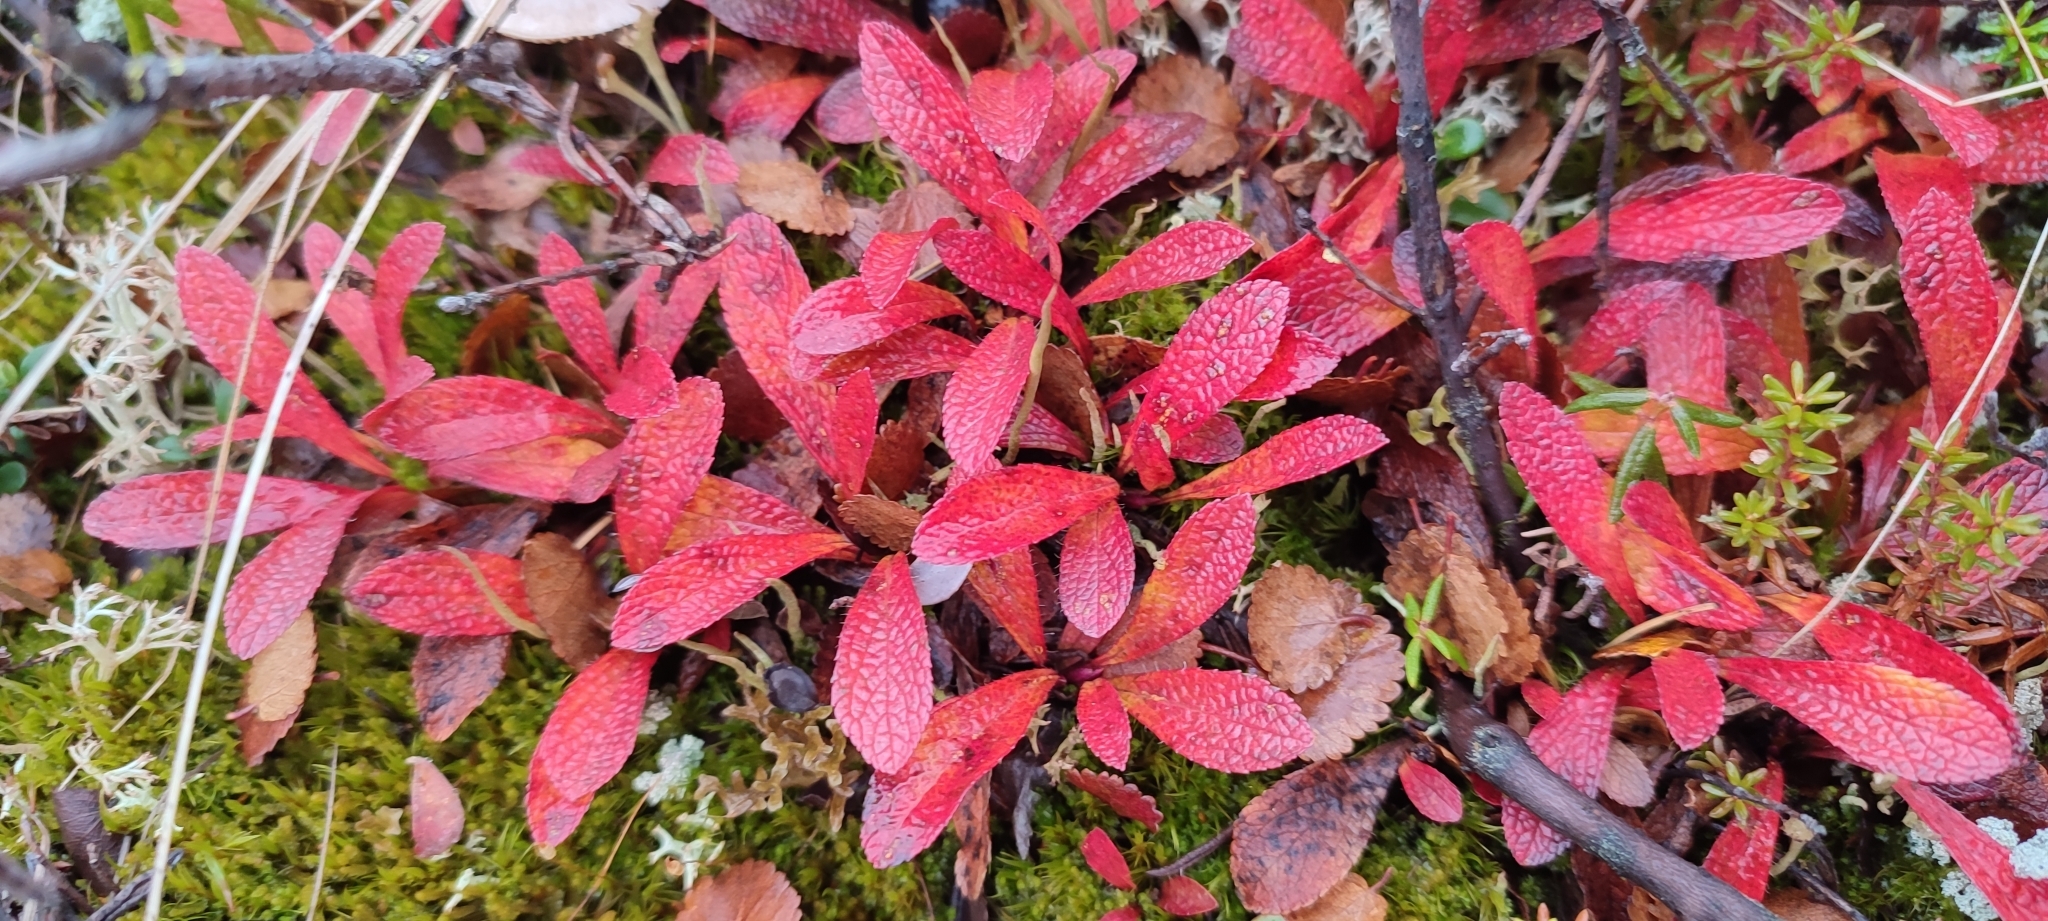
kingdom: Plantae
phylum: Tracheophyta
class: Magnoliopsida
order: Ericales
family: Ericaceae
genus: Arctostaphylos
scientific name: Arctostaphylos alpinus
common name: Alpine bearberry
